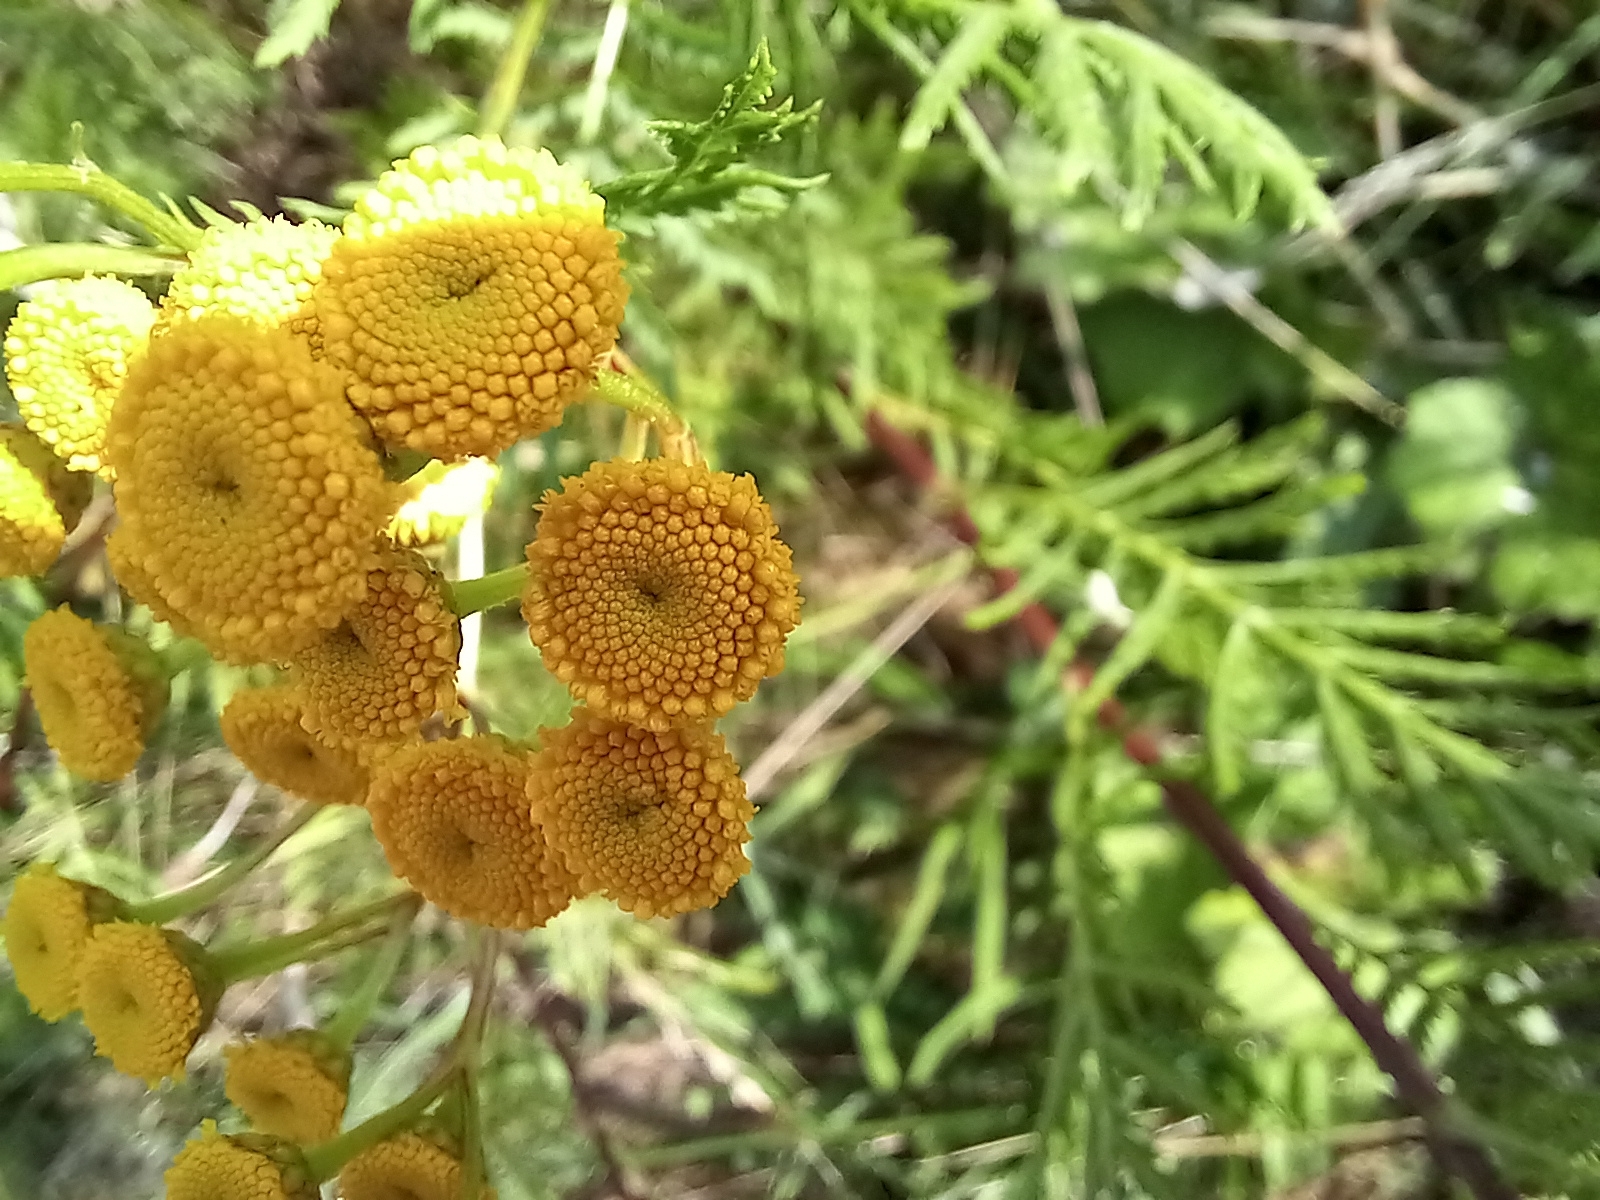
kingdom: Plantae
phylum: Tracheophyta
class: Magnoliopsida
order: Asterales
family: Asteraceae
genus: Tanacetum
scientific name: Tanacetum vulgare
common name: Common tansy
